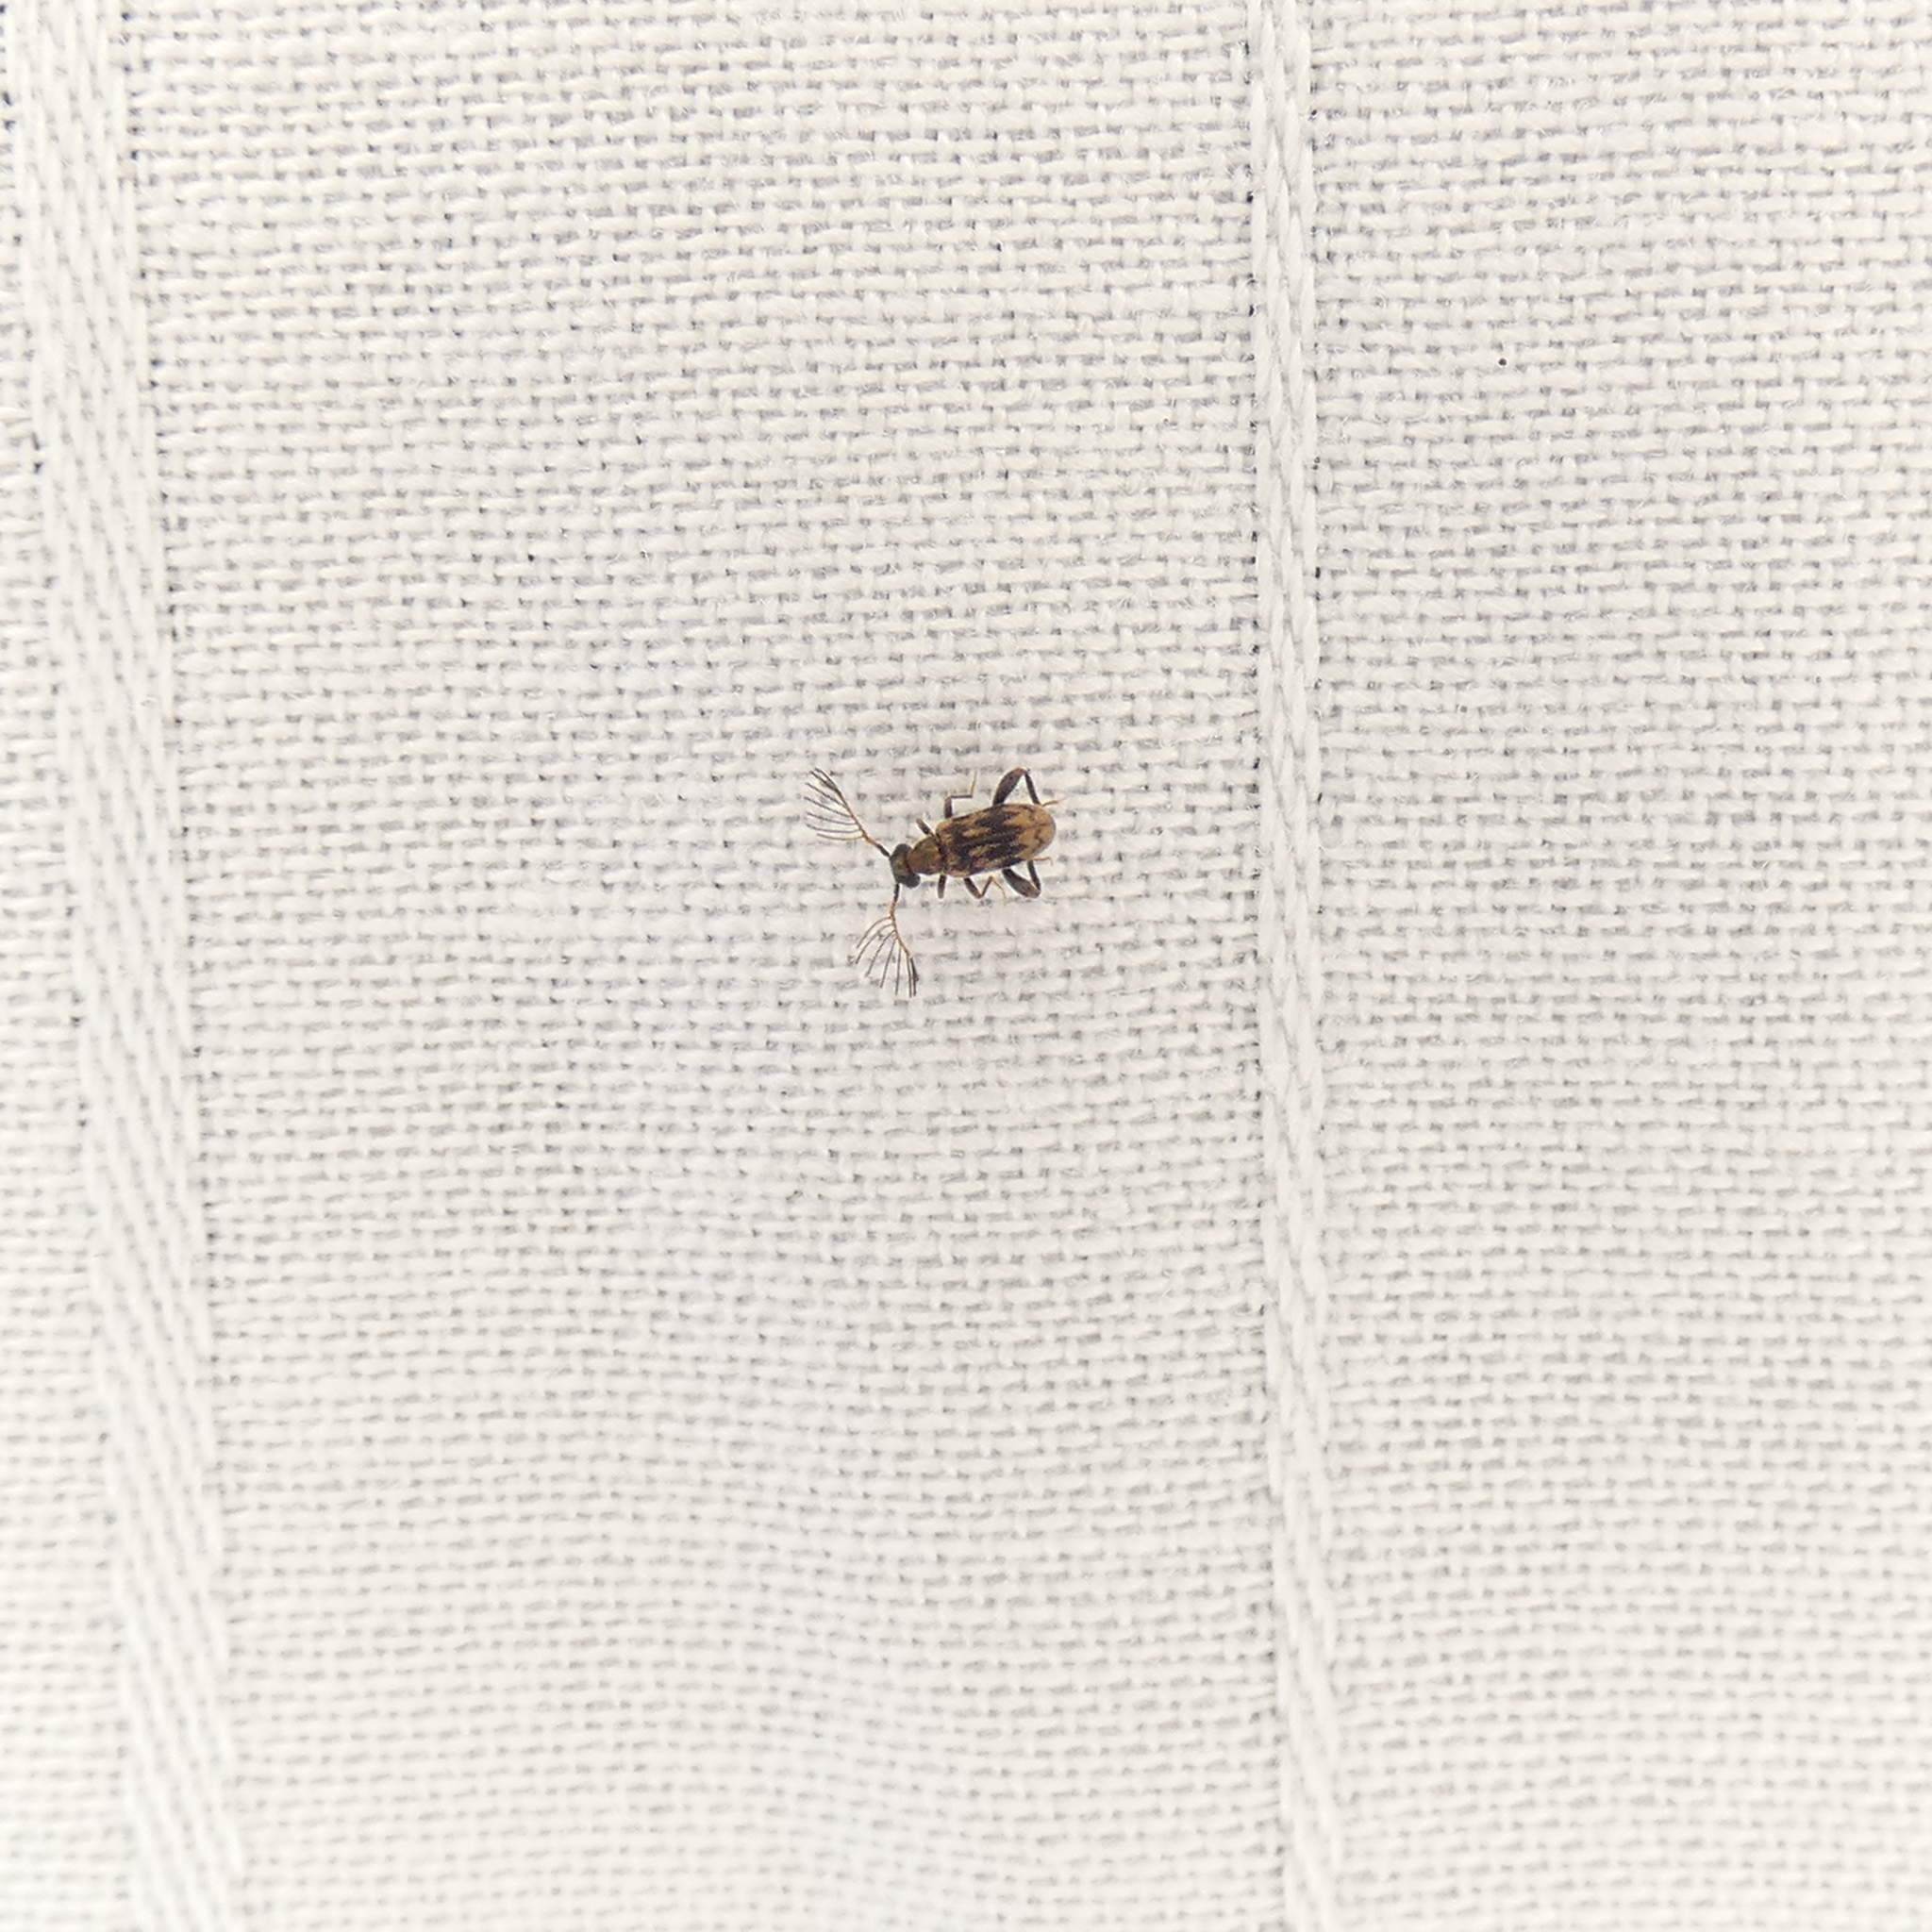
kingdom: Animalia
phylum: Arthropoda
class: Insecta
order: Coleoptera
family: Aderidae
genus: Emelinus
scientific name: Emelinus melsheimeri
